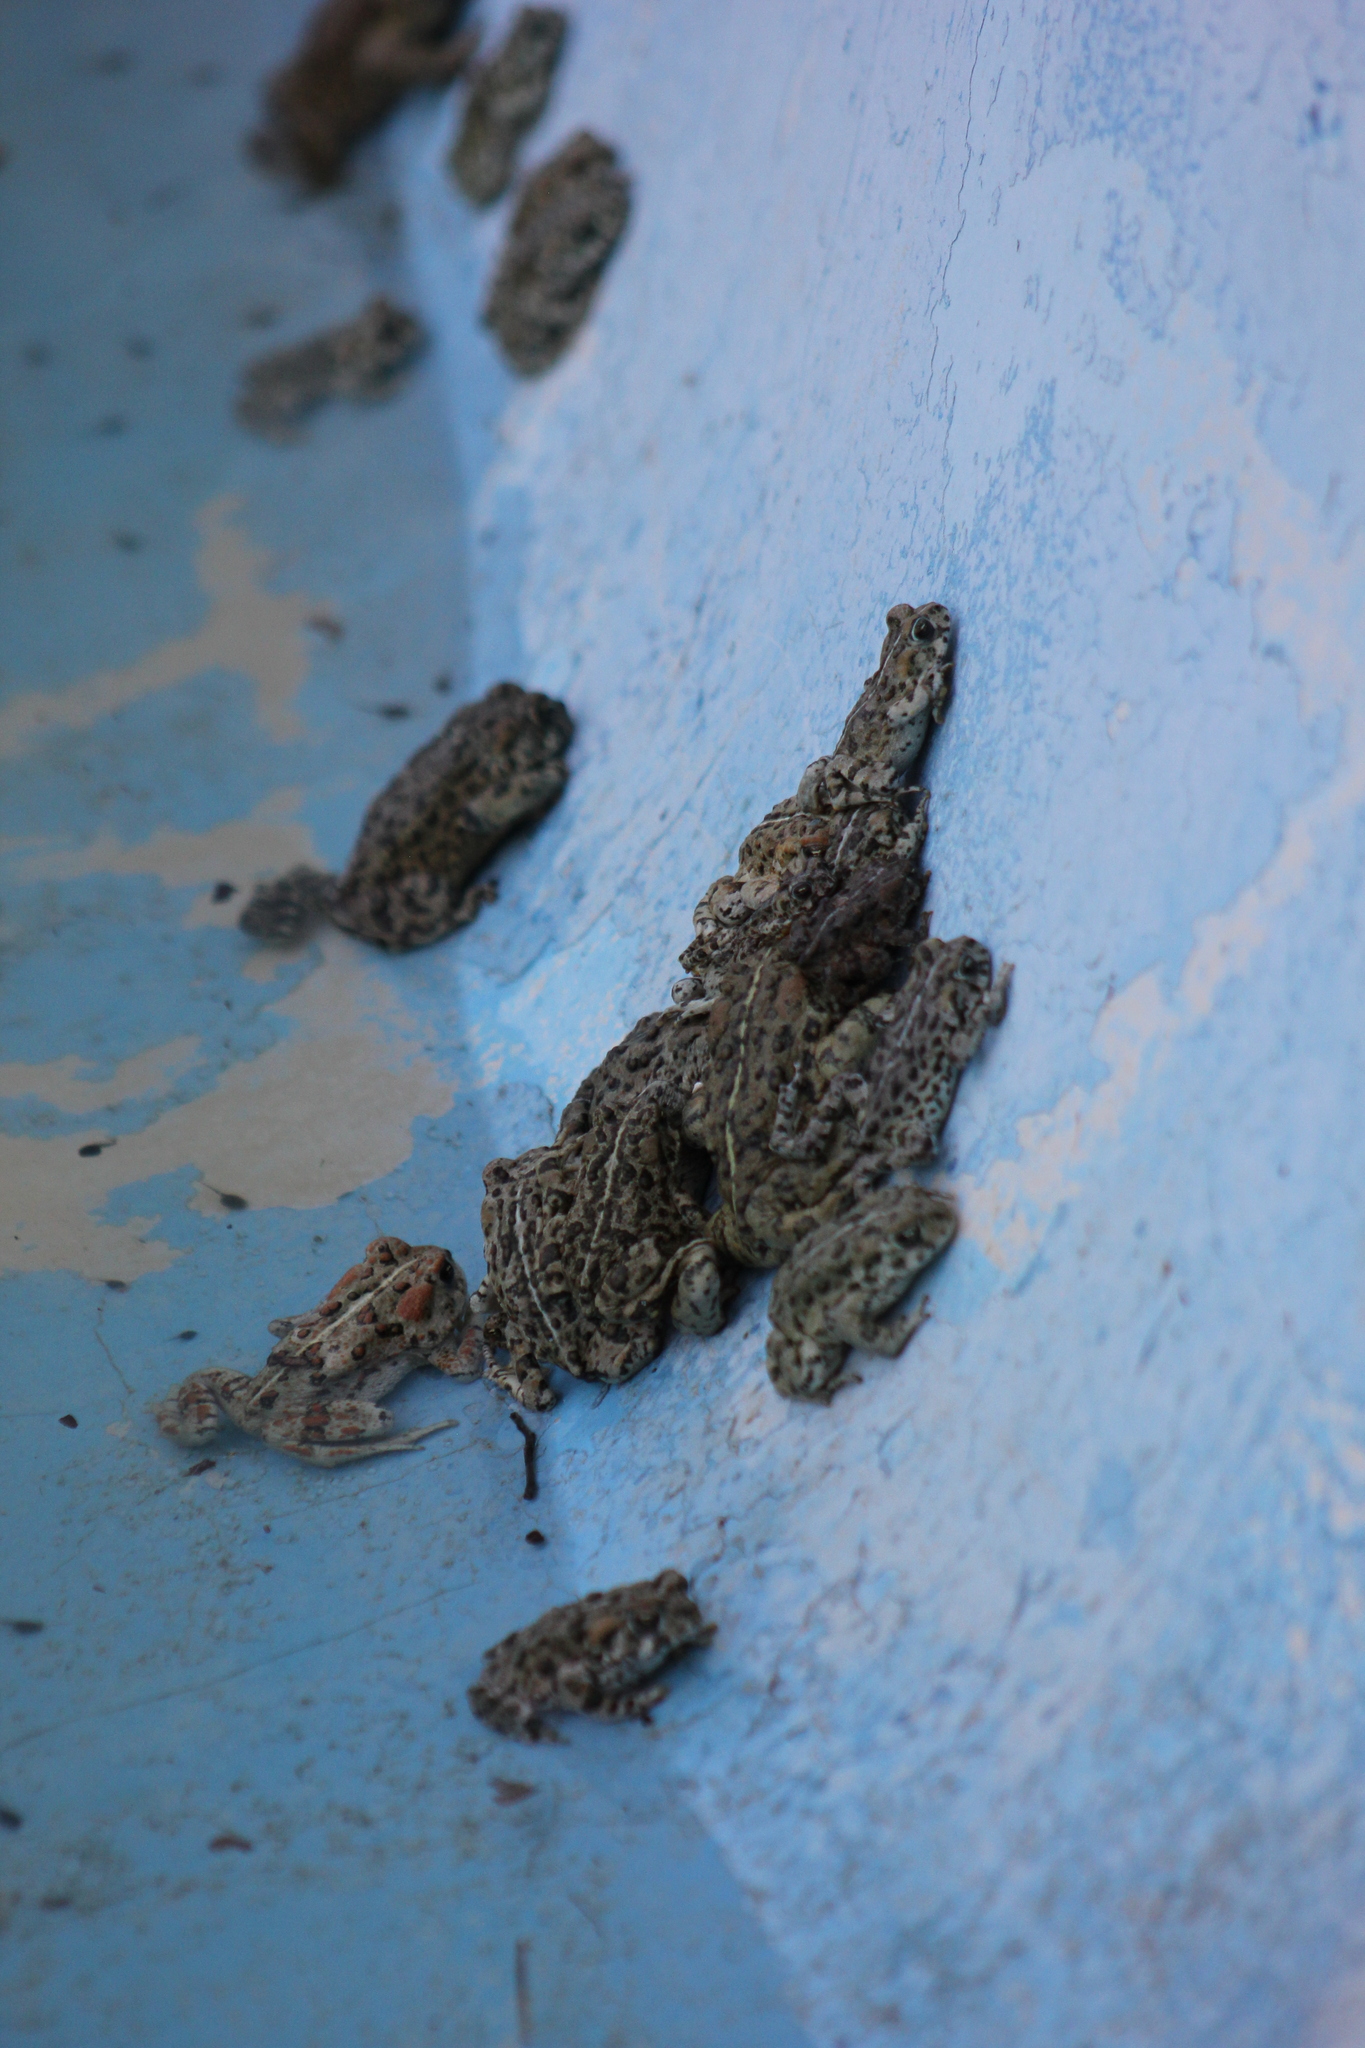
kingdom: Animalia
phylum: Chordata
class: Amphibia
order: Anura
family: Bufonidae
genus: Anaxyrus
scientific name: Anaxyrus boreas
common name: Western toad
